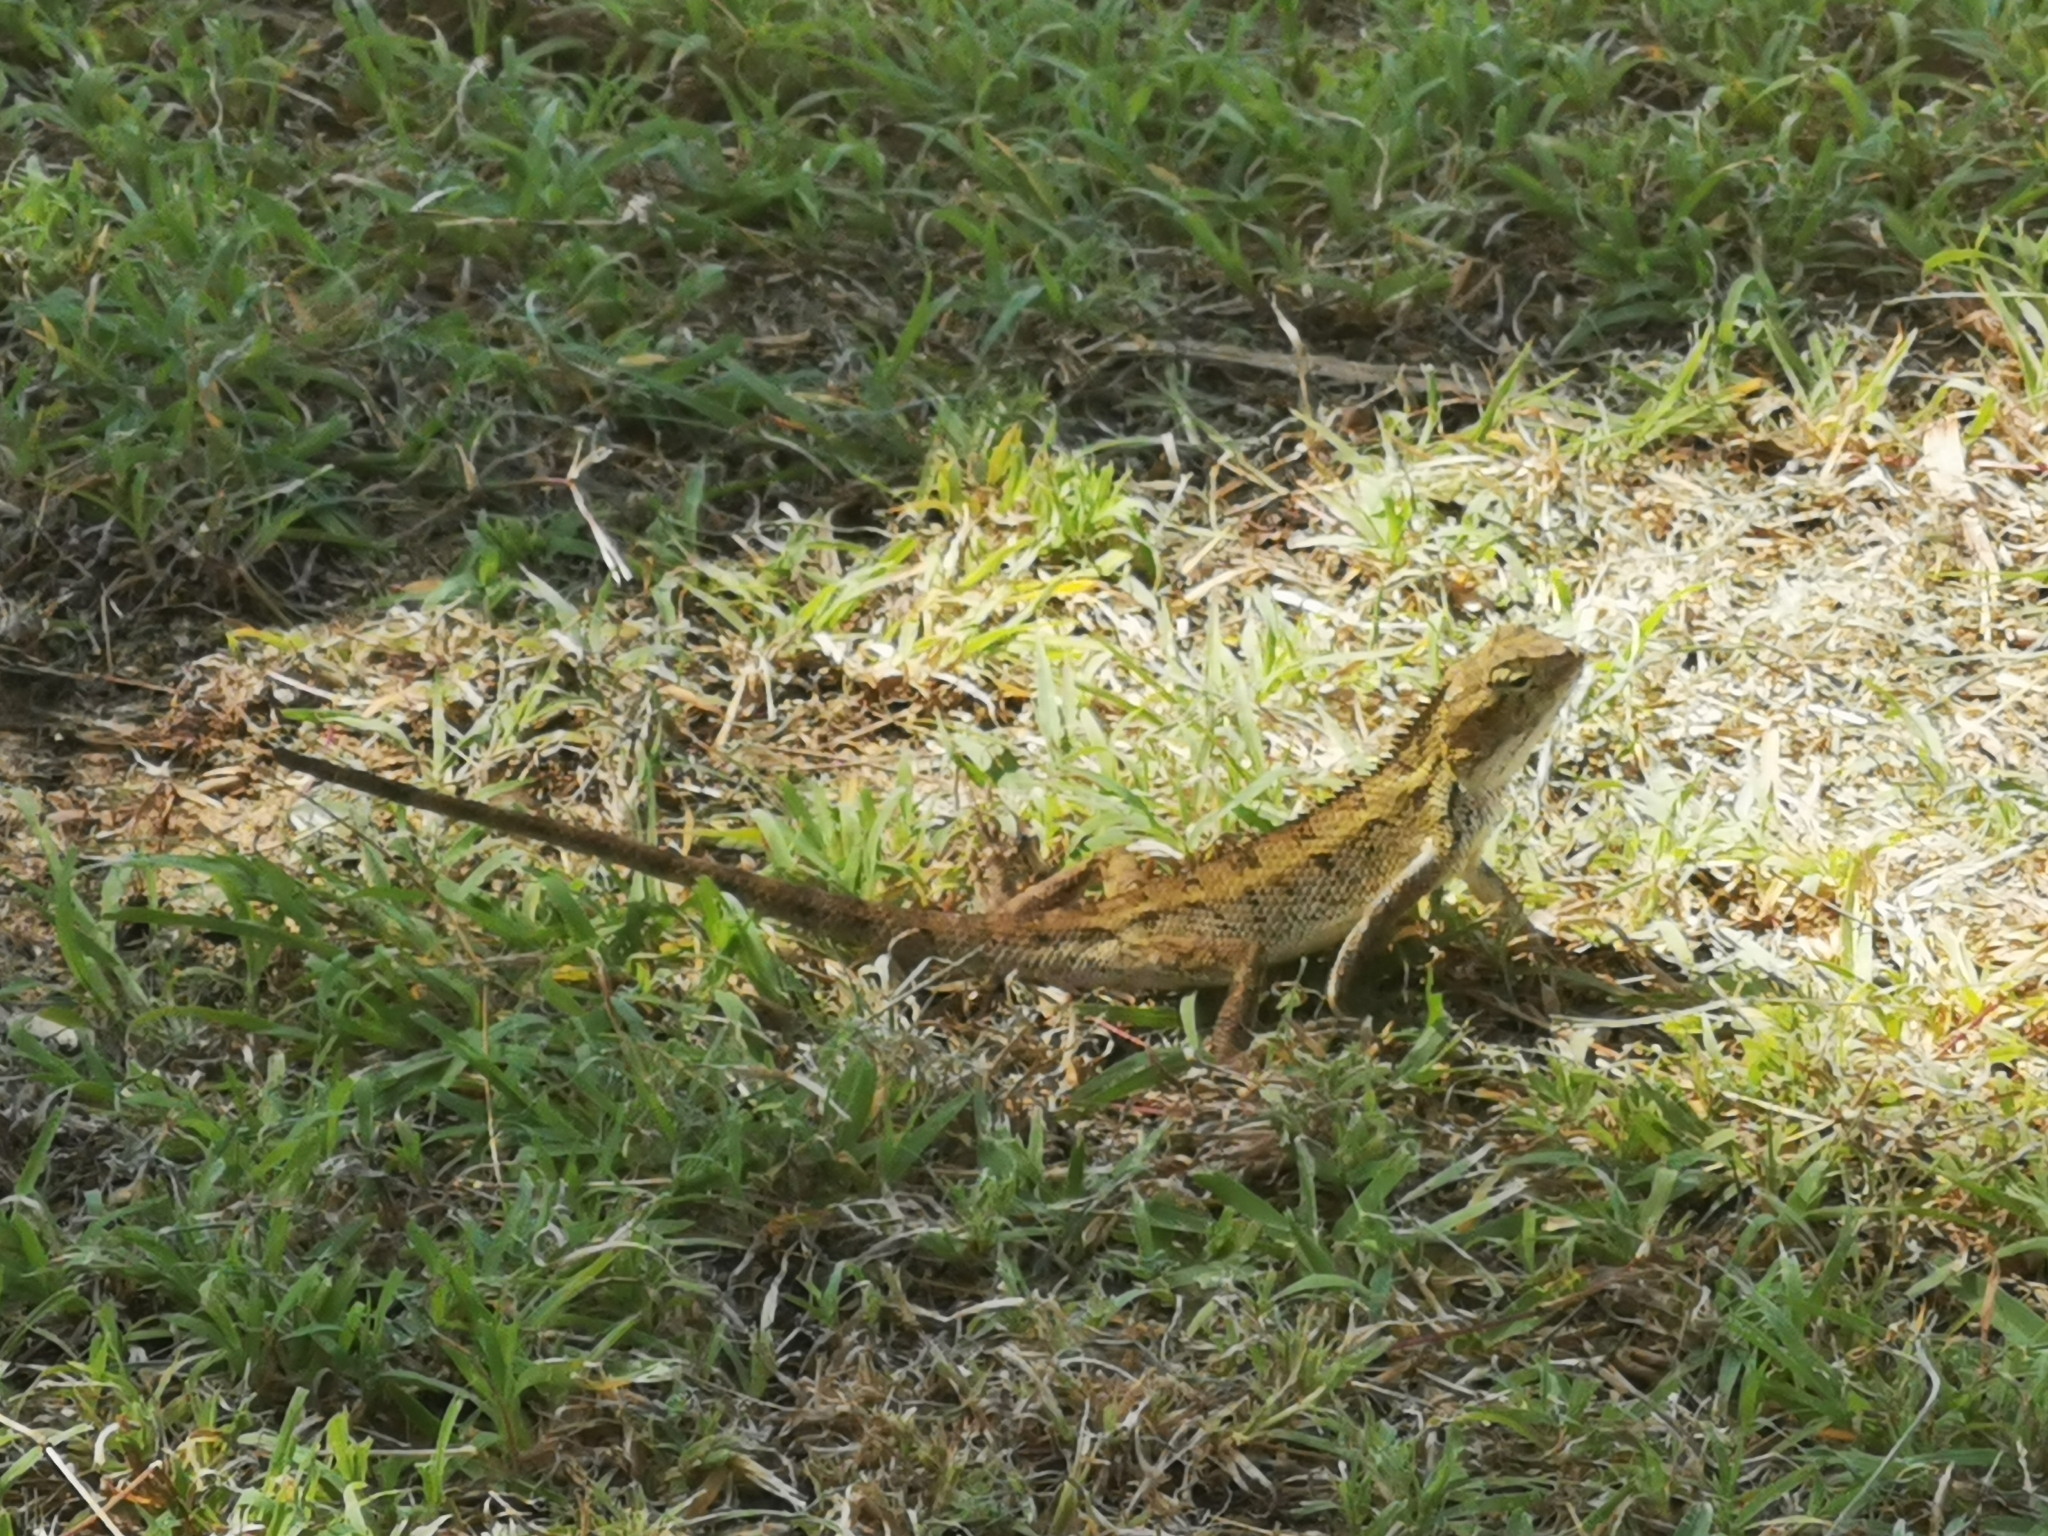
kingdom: Animalia
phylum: Chordata
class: Squamata
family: Agamidae
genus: Calotes
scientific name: Calotes versicolor
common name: Oriental garden lizard
